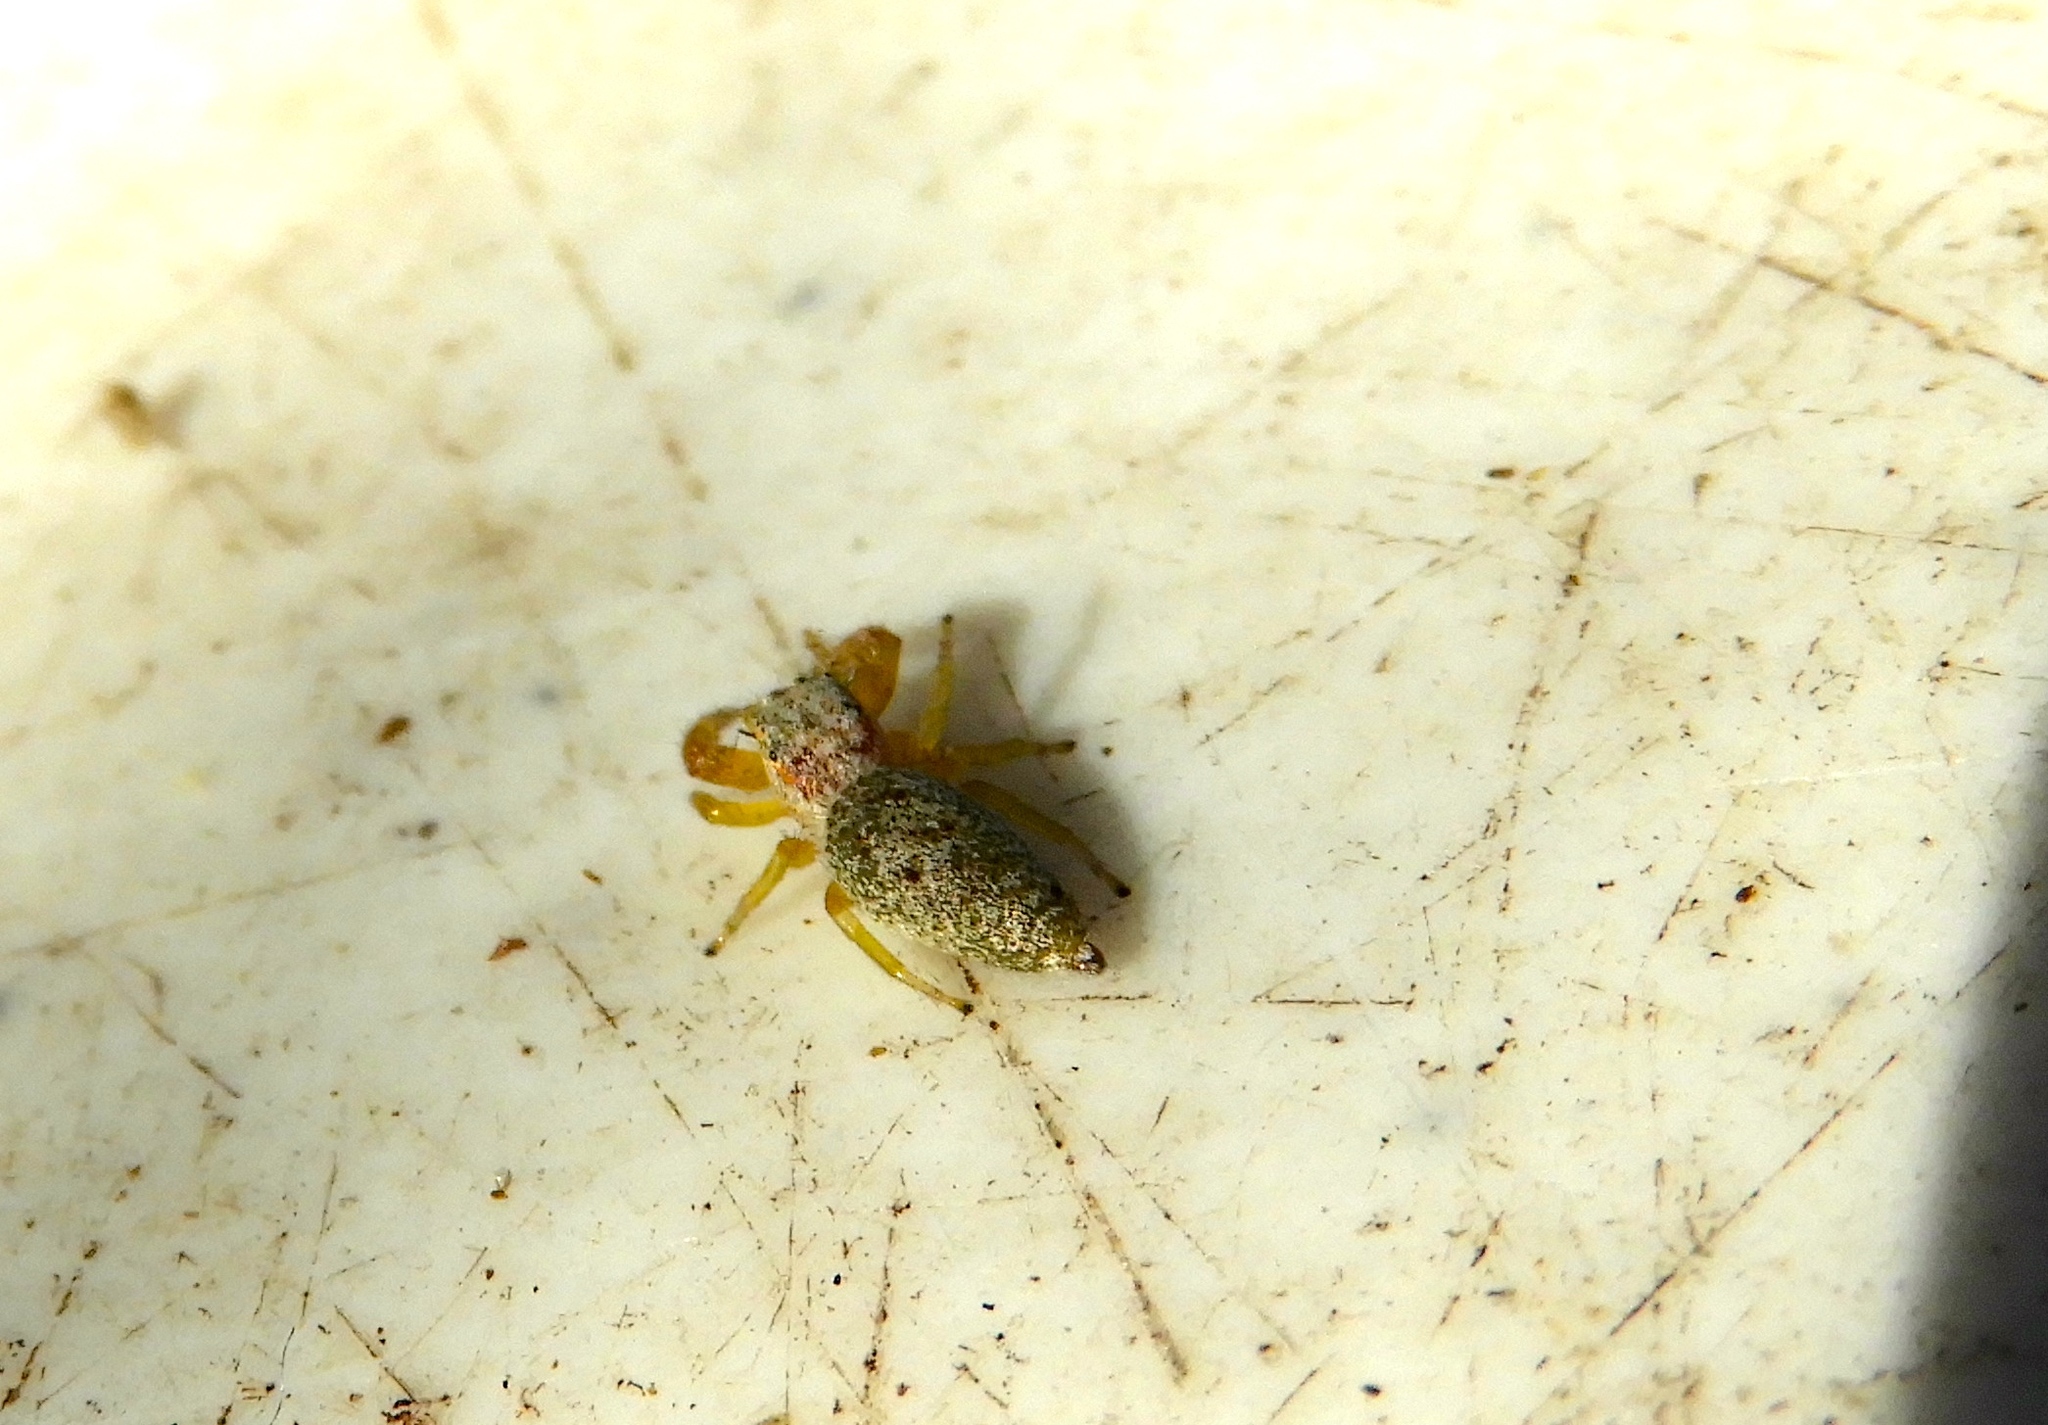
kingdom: Animalia
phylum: Arthropoda
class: Arachnida
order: Araneae
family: Salticidae
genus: Hentzia
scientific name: Hentzia palmarum
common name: Common hentz jumping spider
